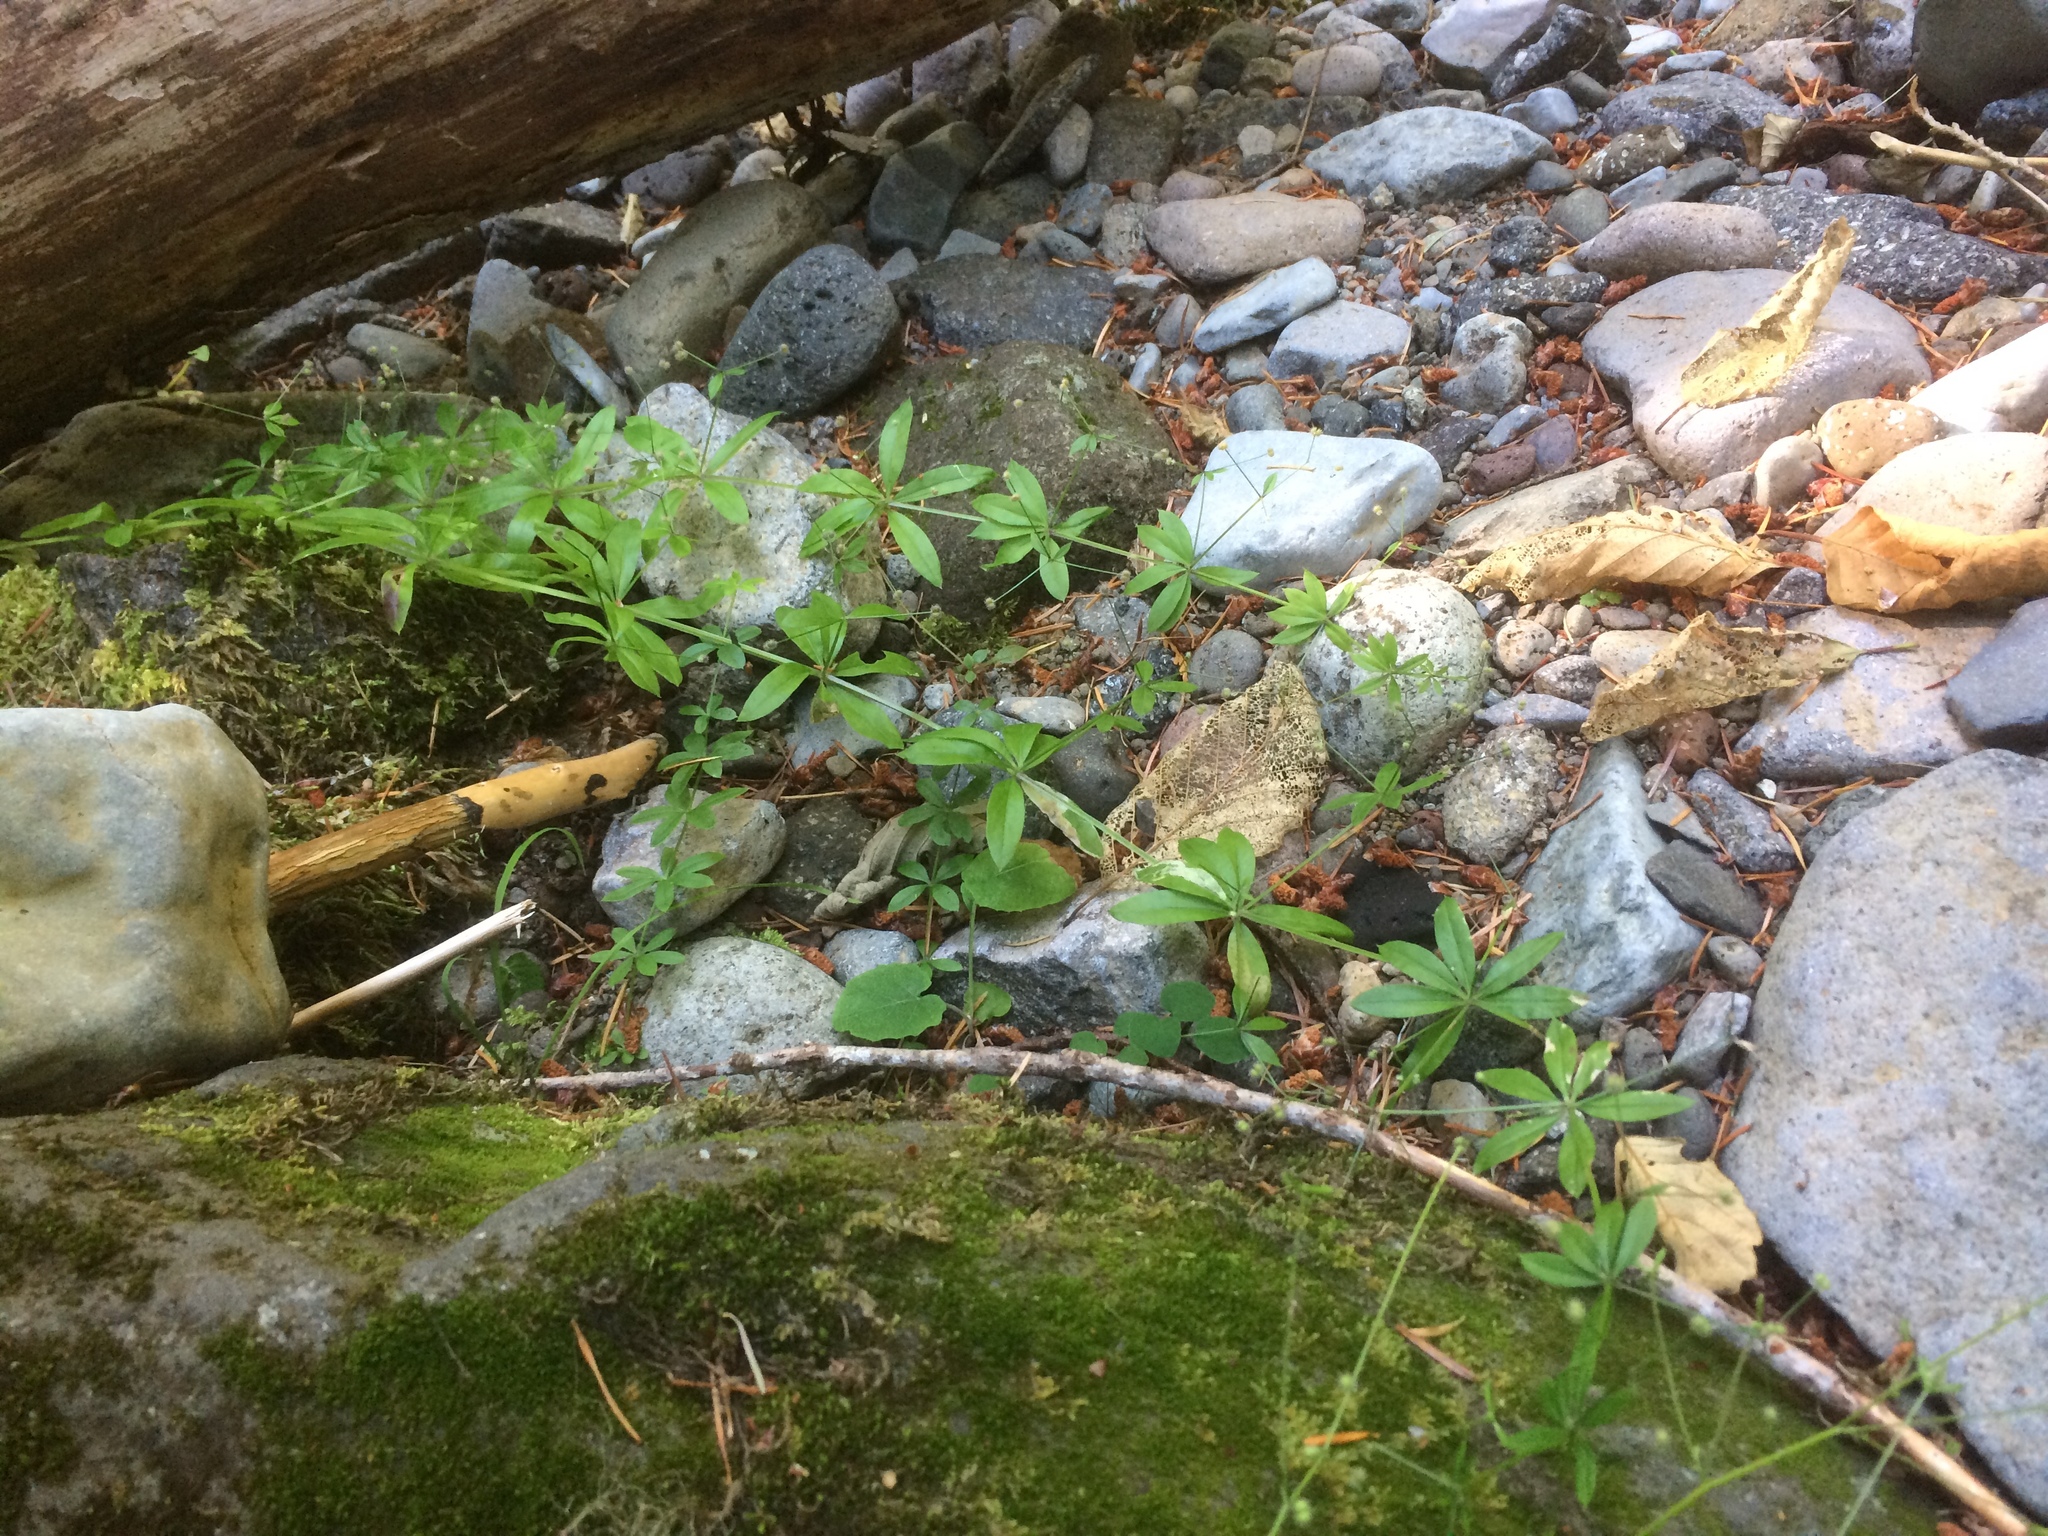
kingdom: Plantae
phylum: Tracheophyta
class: Magnoliopsida
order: Gentianales
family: Rubiaceae
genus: Galium
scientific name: Galium triflorum
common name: Fragrant bedstraw
